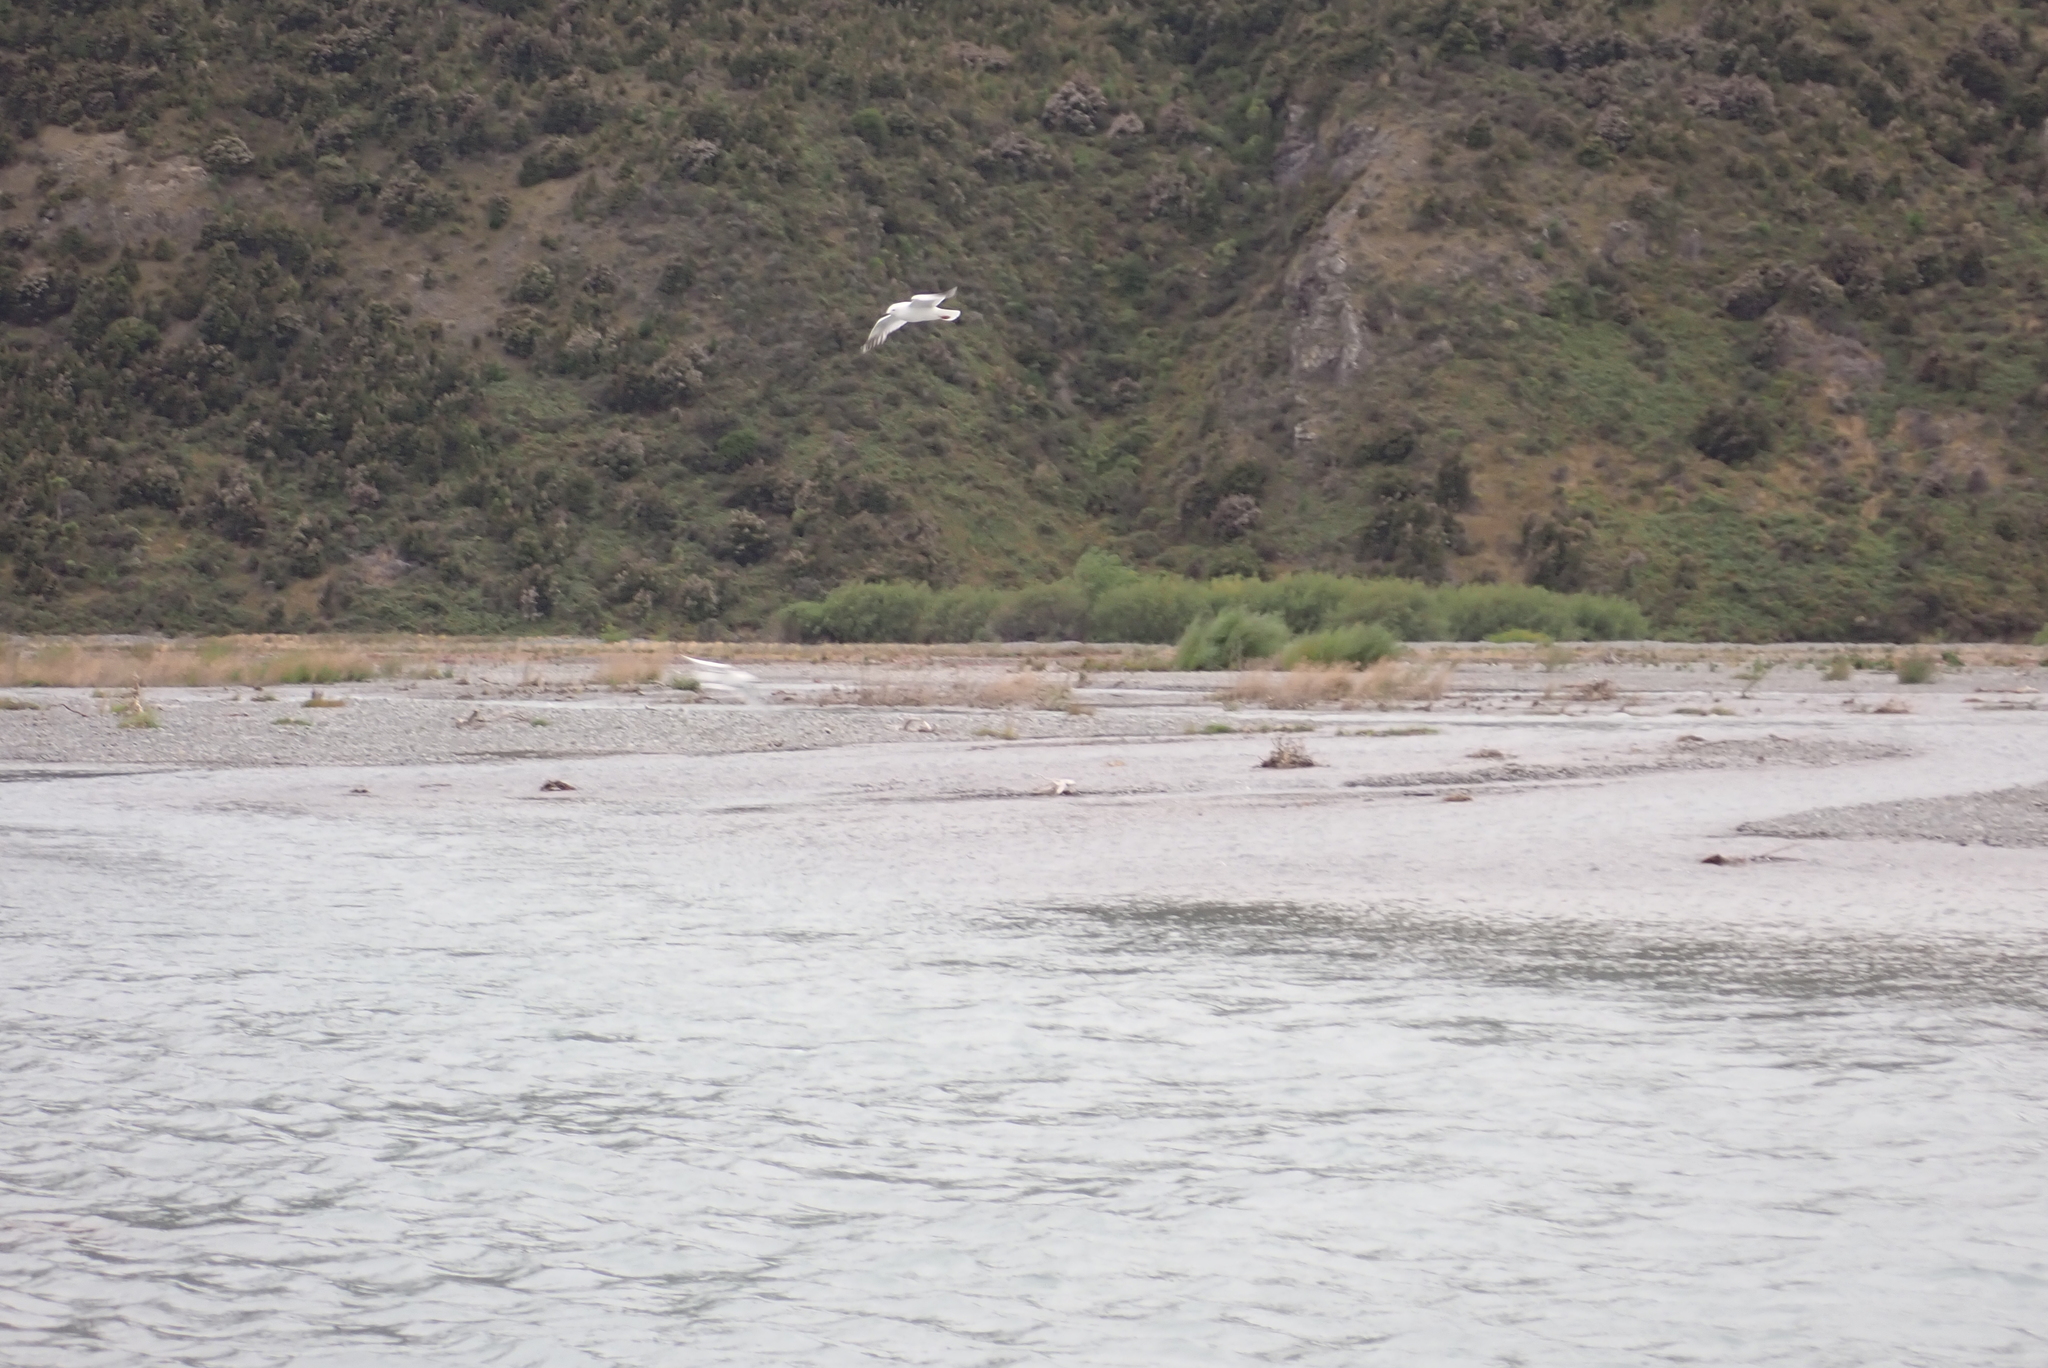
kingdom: Animalia
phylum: Chordata
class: Aves
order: Charadriiformes
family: Laridae
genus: Chroicocephalus
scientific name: Chroicocephalus bulleri
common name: Black-billed gull
